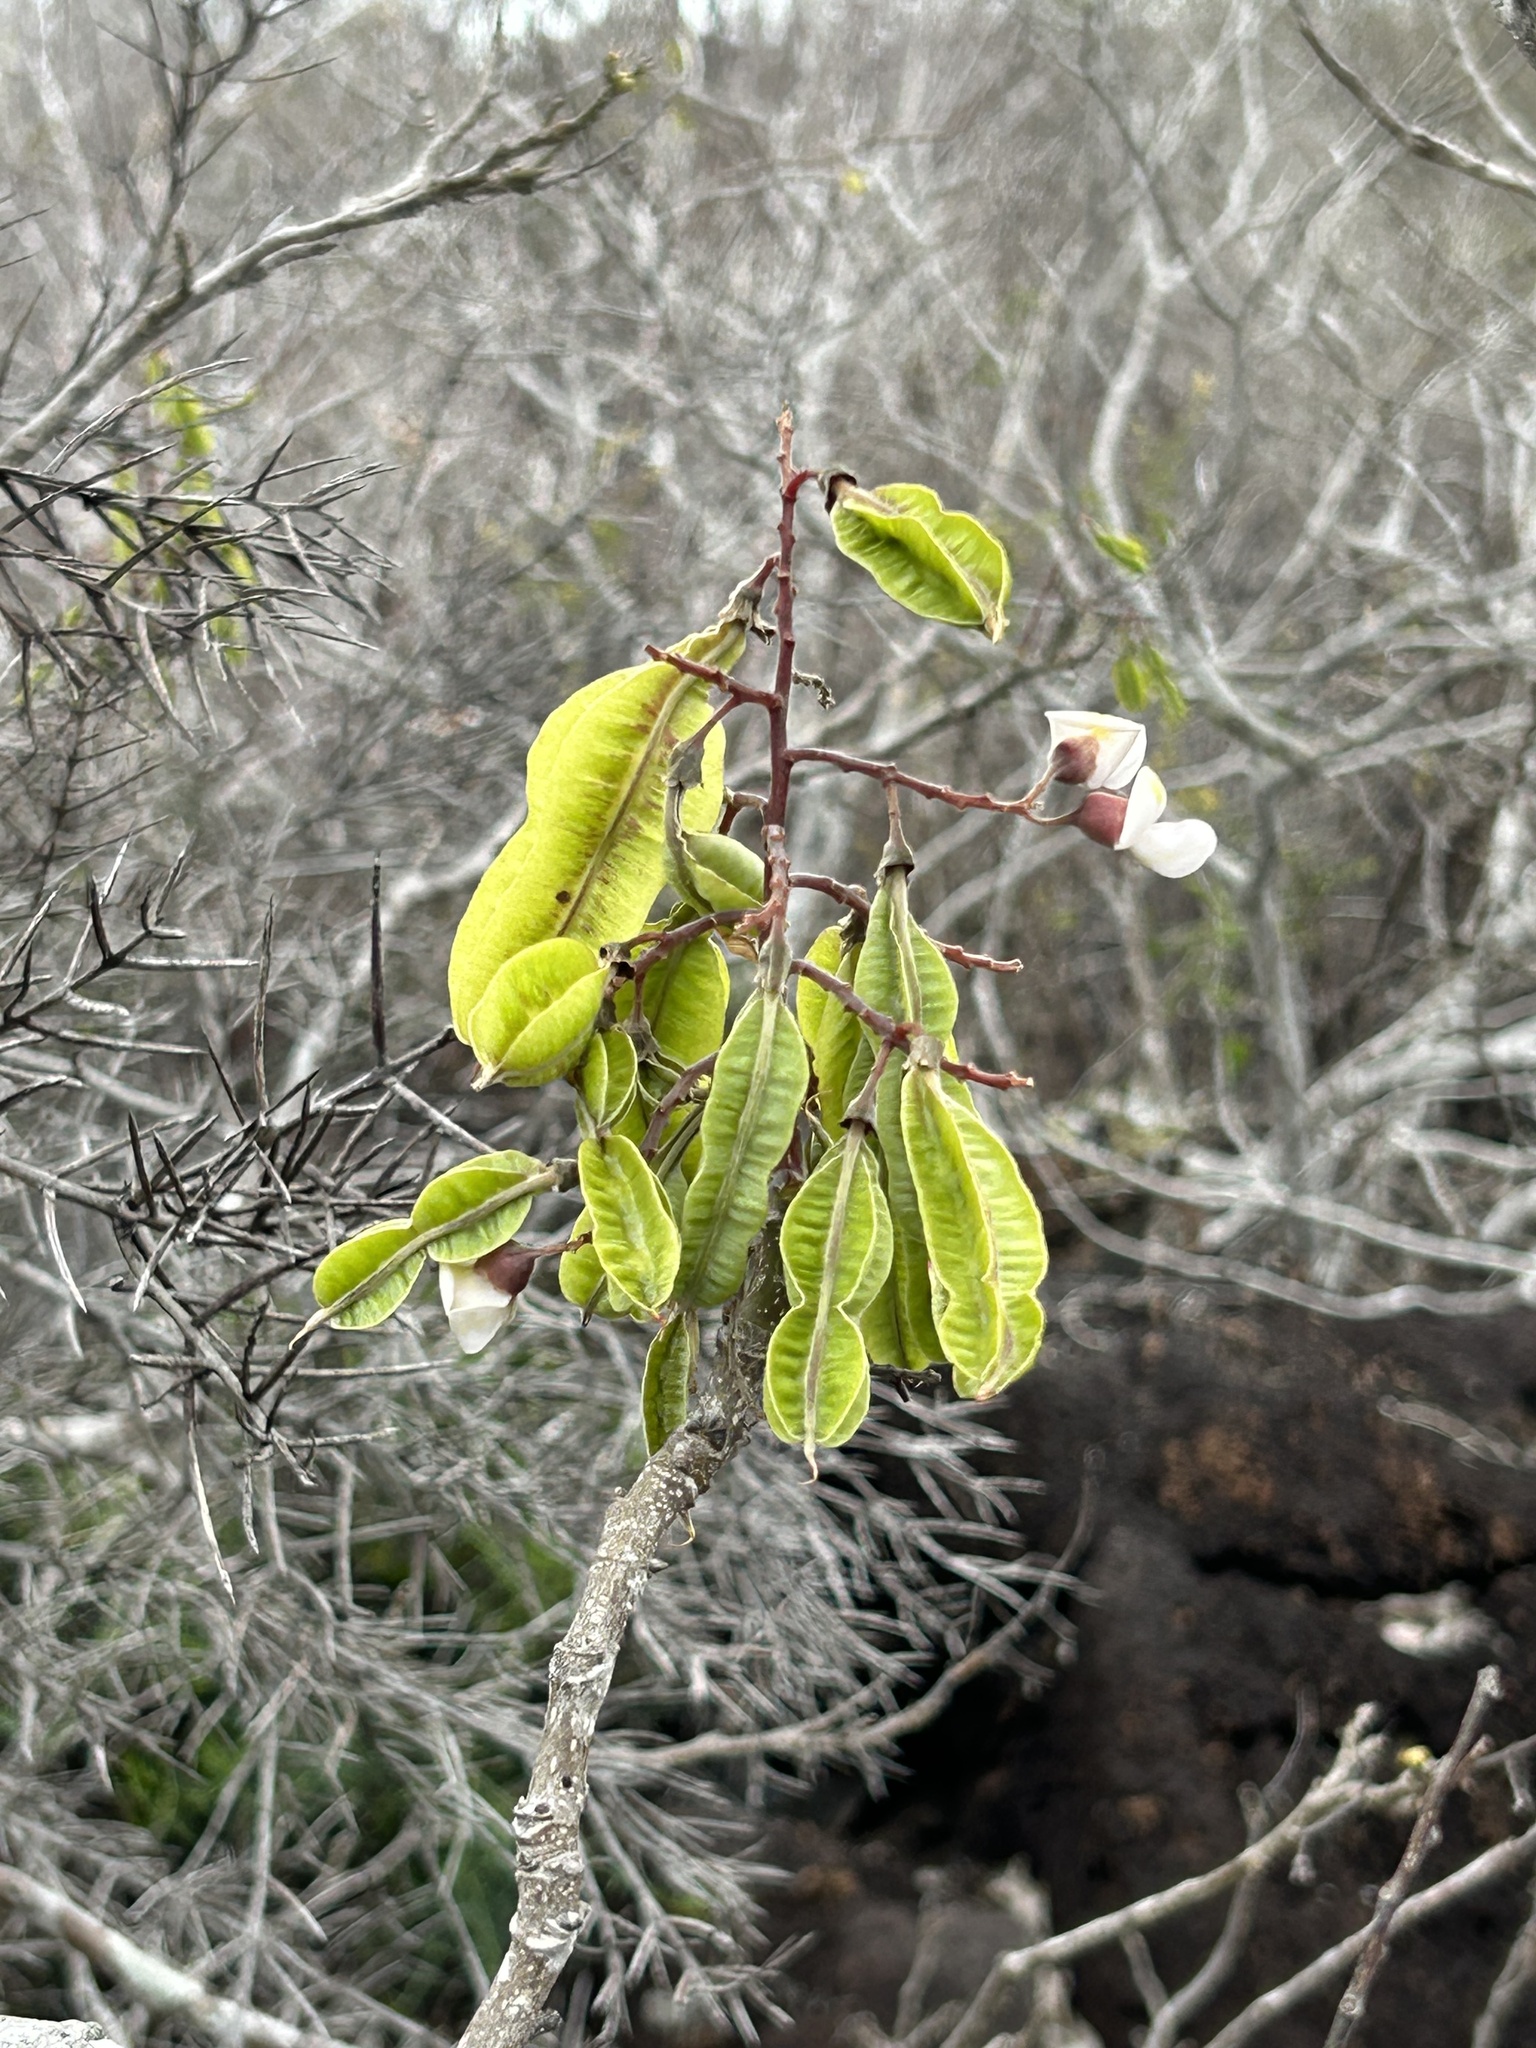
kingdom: Plantae
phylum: Tracheophyta
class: Magnoliopsida
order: Fabales
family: Fabaceae
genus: Piscidia
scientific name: Piscidia carthagenensis
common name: Stinkwood
